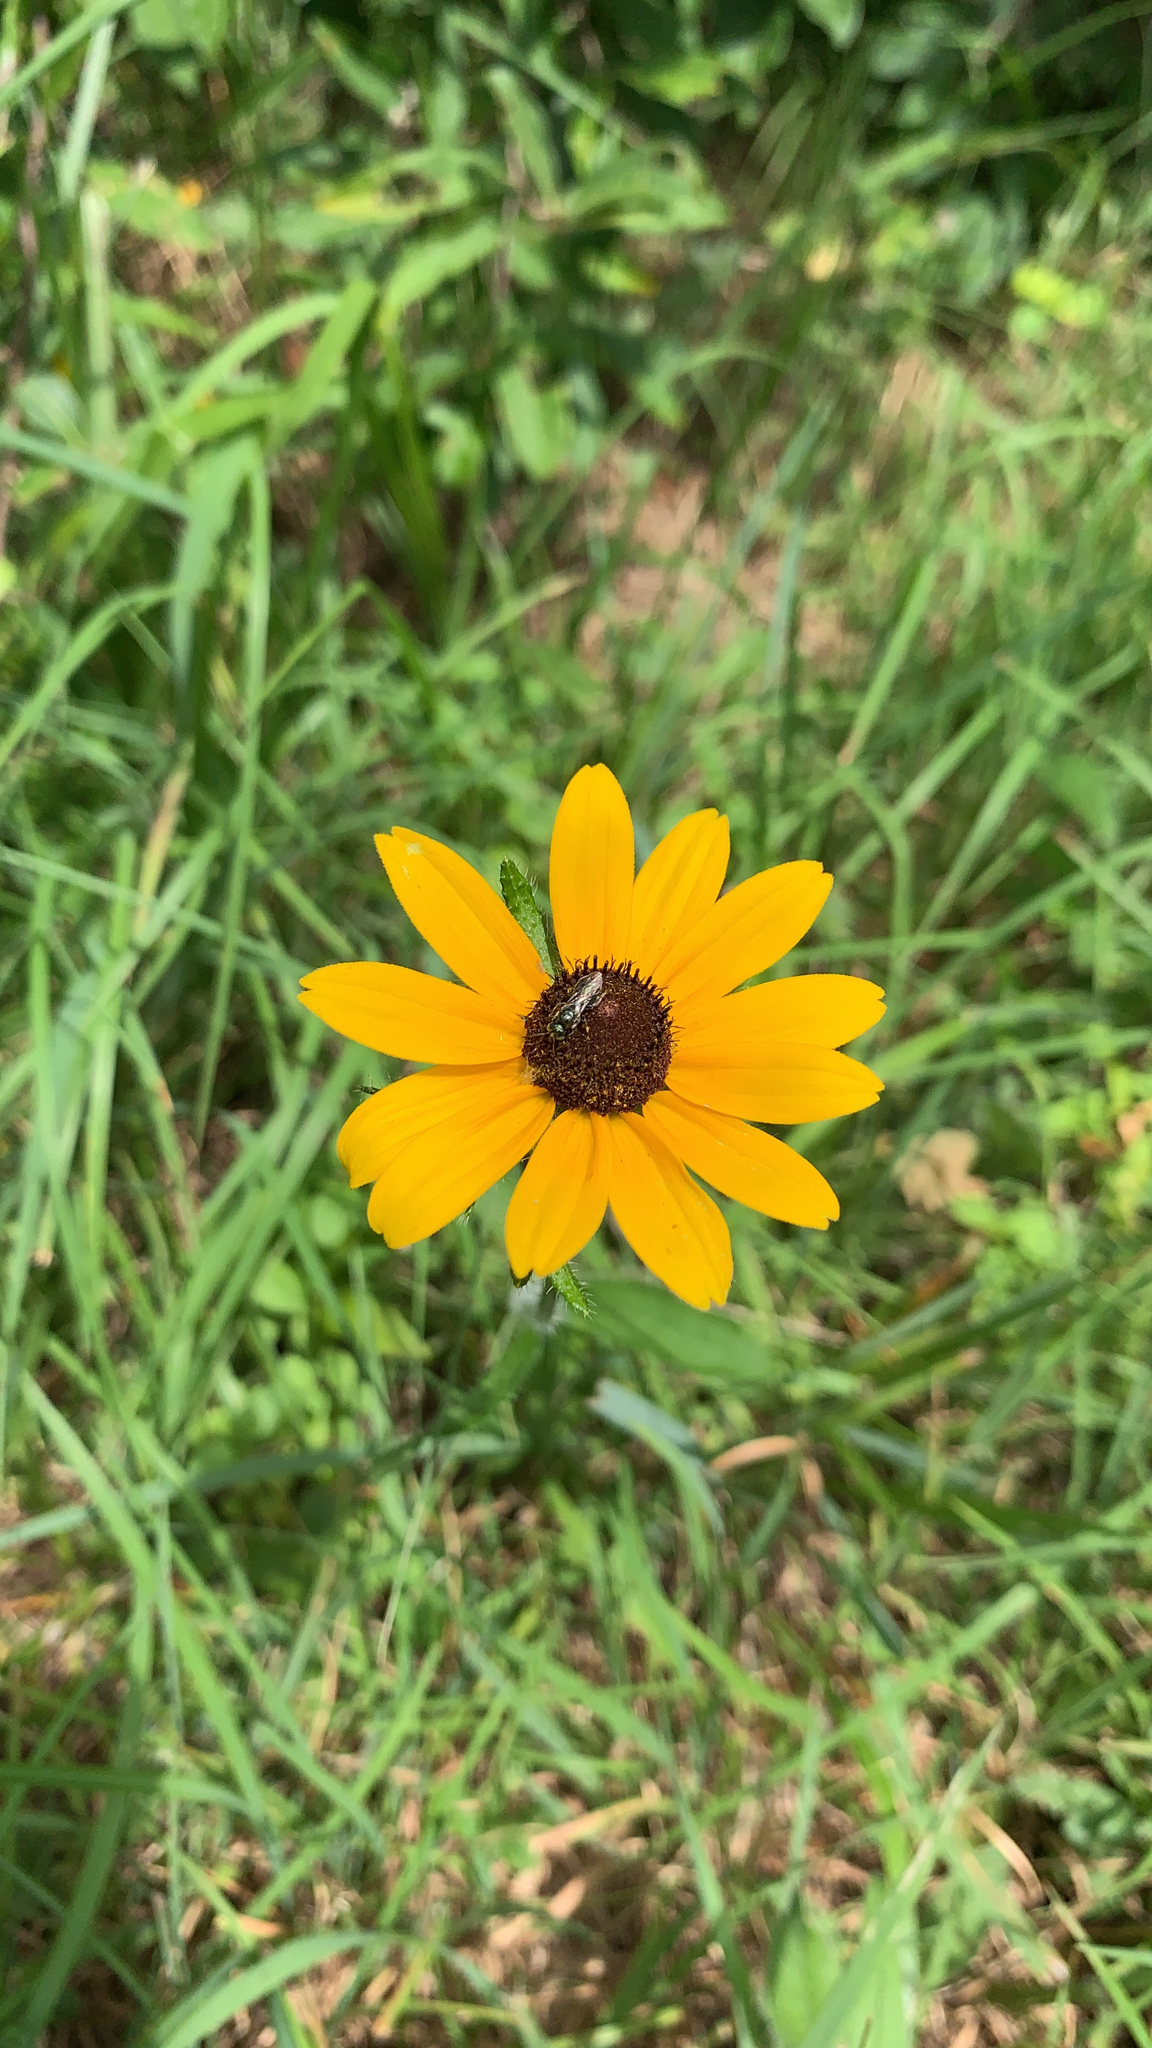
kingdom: Plantae
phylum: Tracheophyta
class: Magnoliopsida
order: Asterales
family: Asteraceae
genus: Rudbeckia
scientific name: Rudbeckia hirta
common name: Black-eyed-susan
